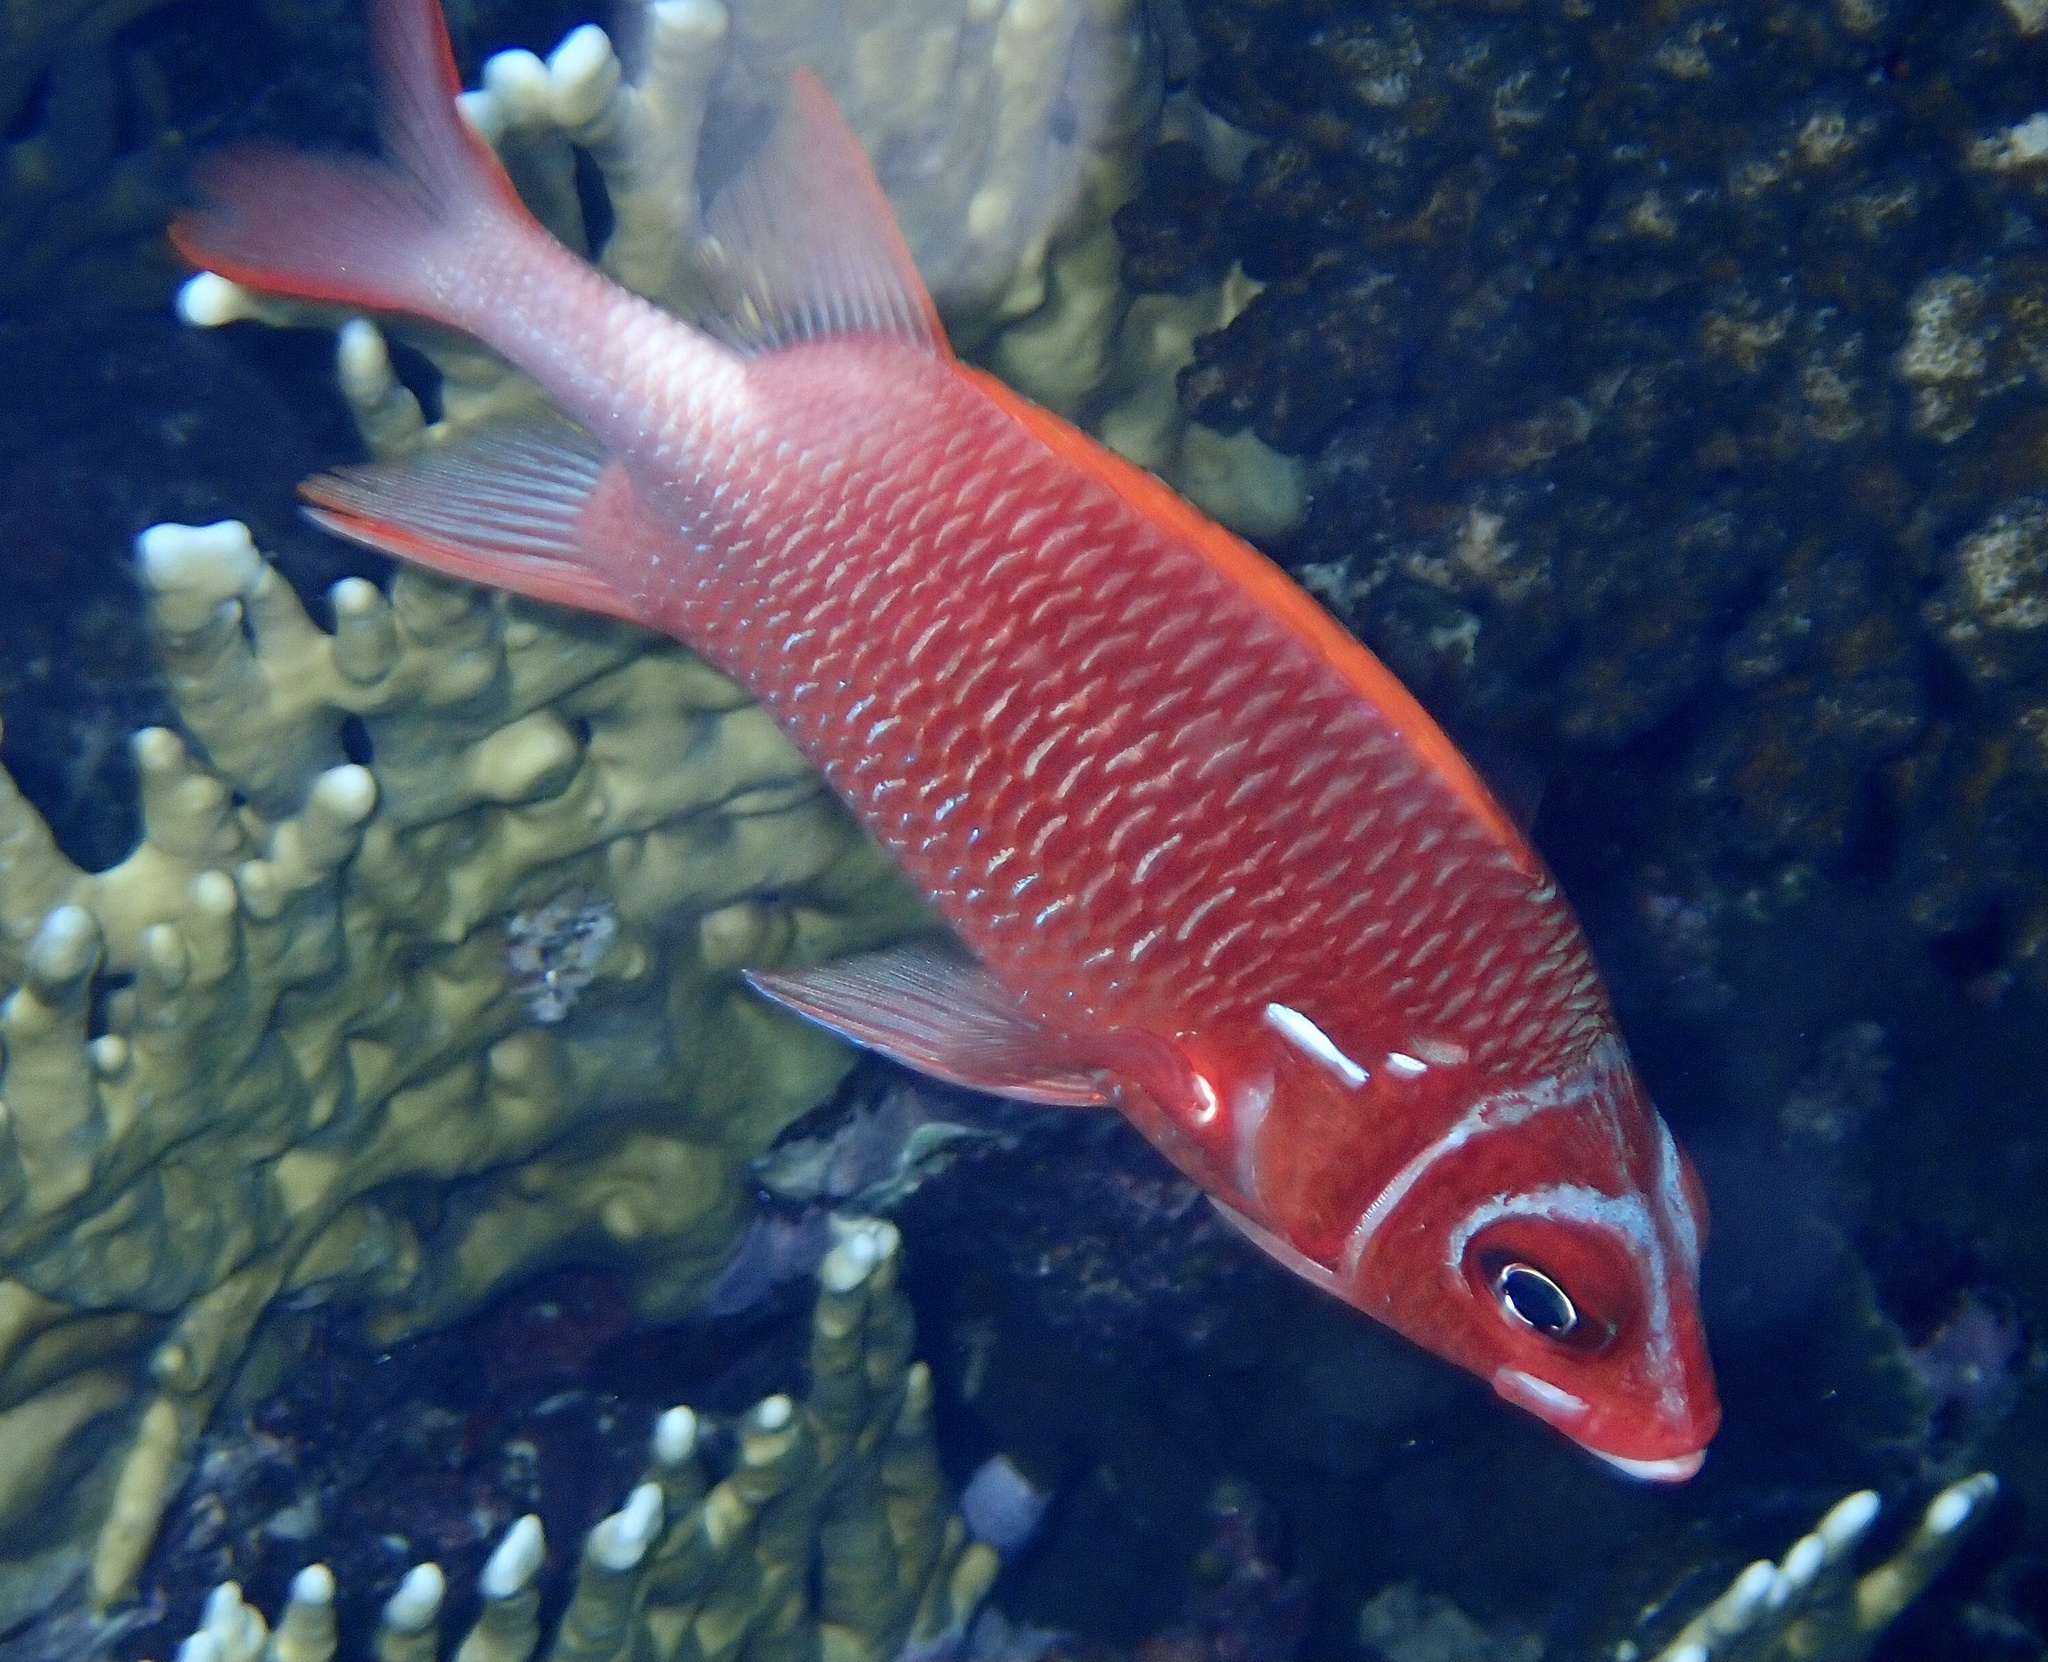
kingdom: Animalia
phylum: Chordata
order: Beryciformes
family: Holocentridae
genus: Sargocentron
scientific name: Sargocentron caudimaculatum
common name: Fanfin soldier
